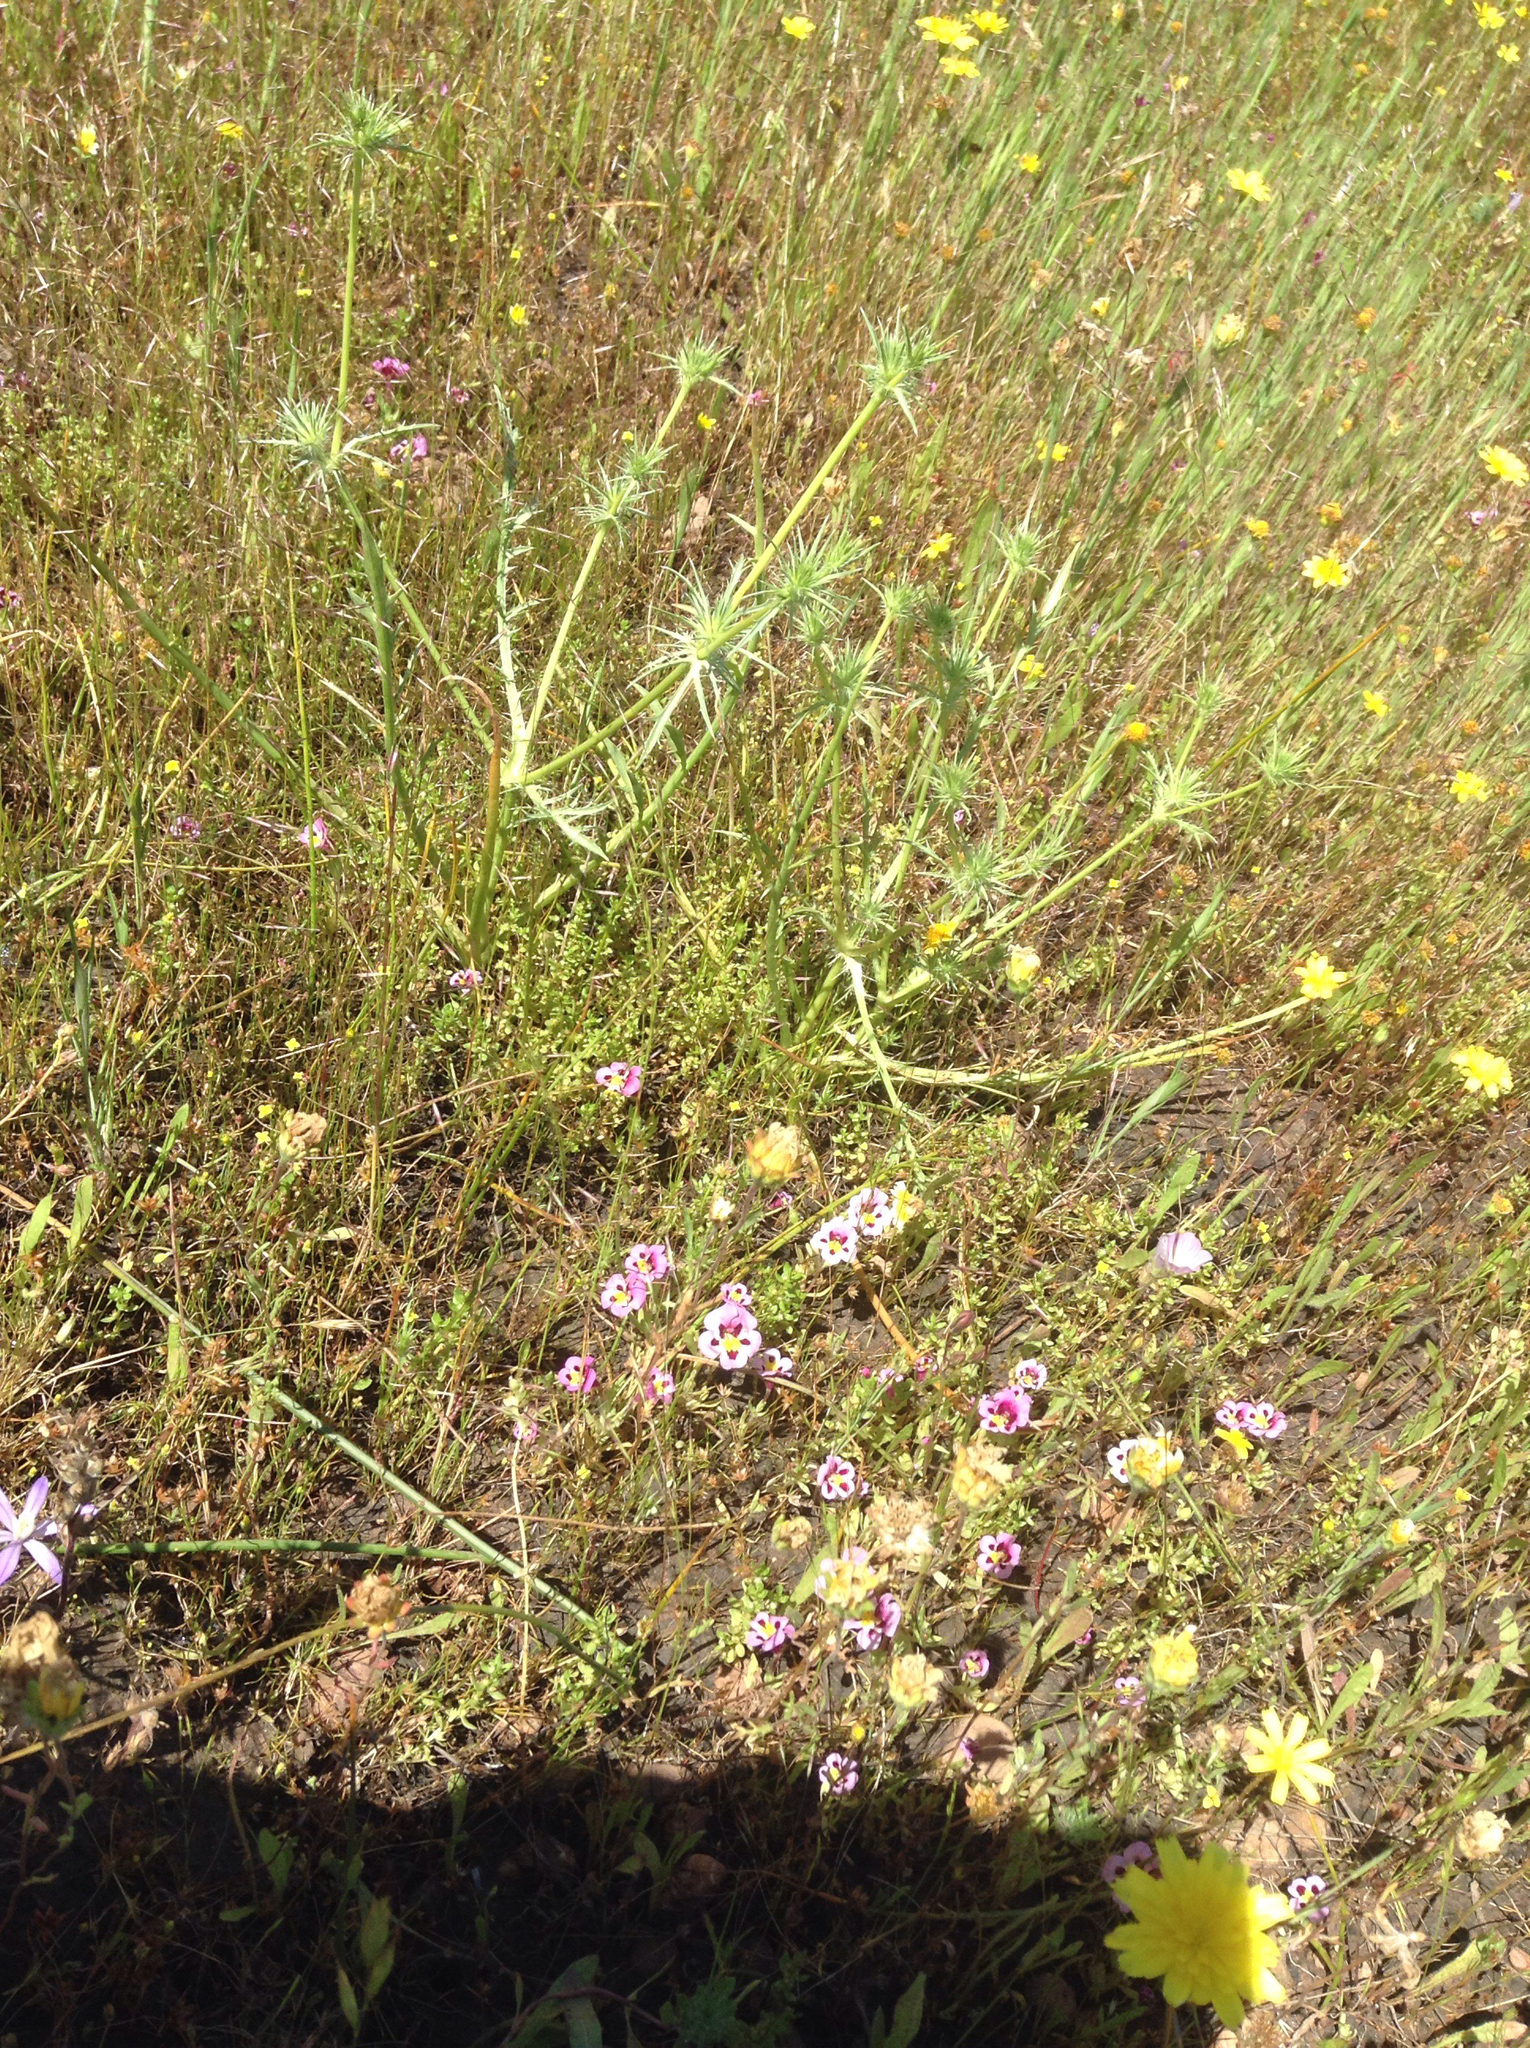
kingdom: Plantae
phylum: Tracheophyta
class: Magnoliopsida
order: Lamiales
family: Phrymaceae
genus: Diplacus
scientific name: Diplacus tricolor
